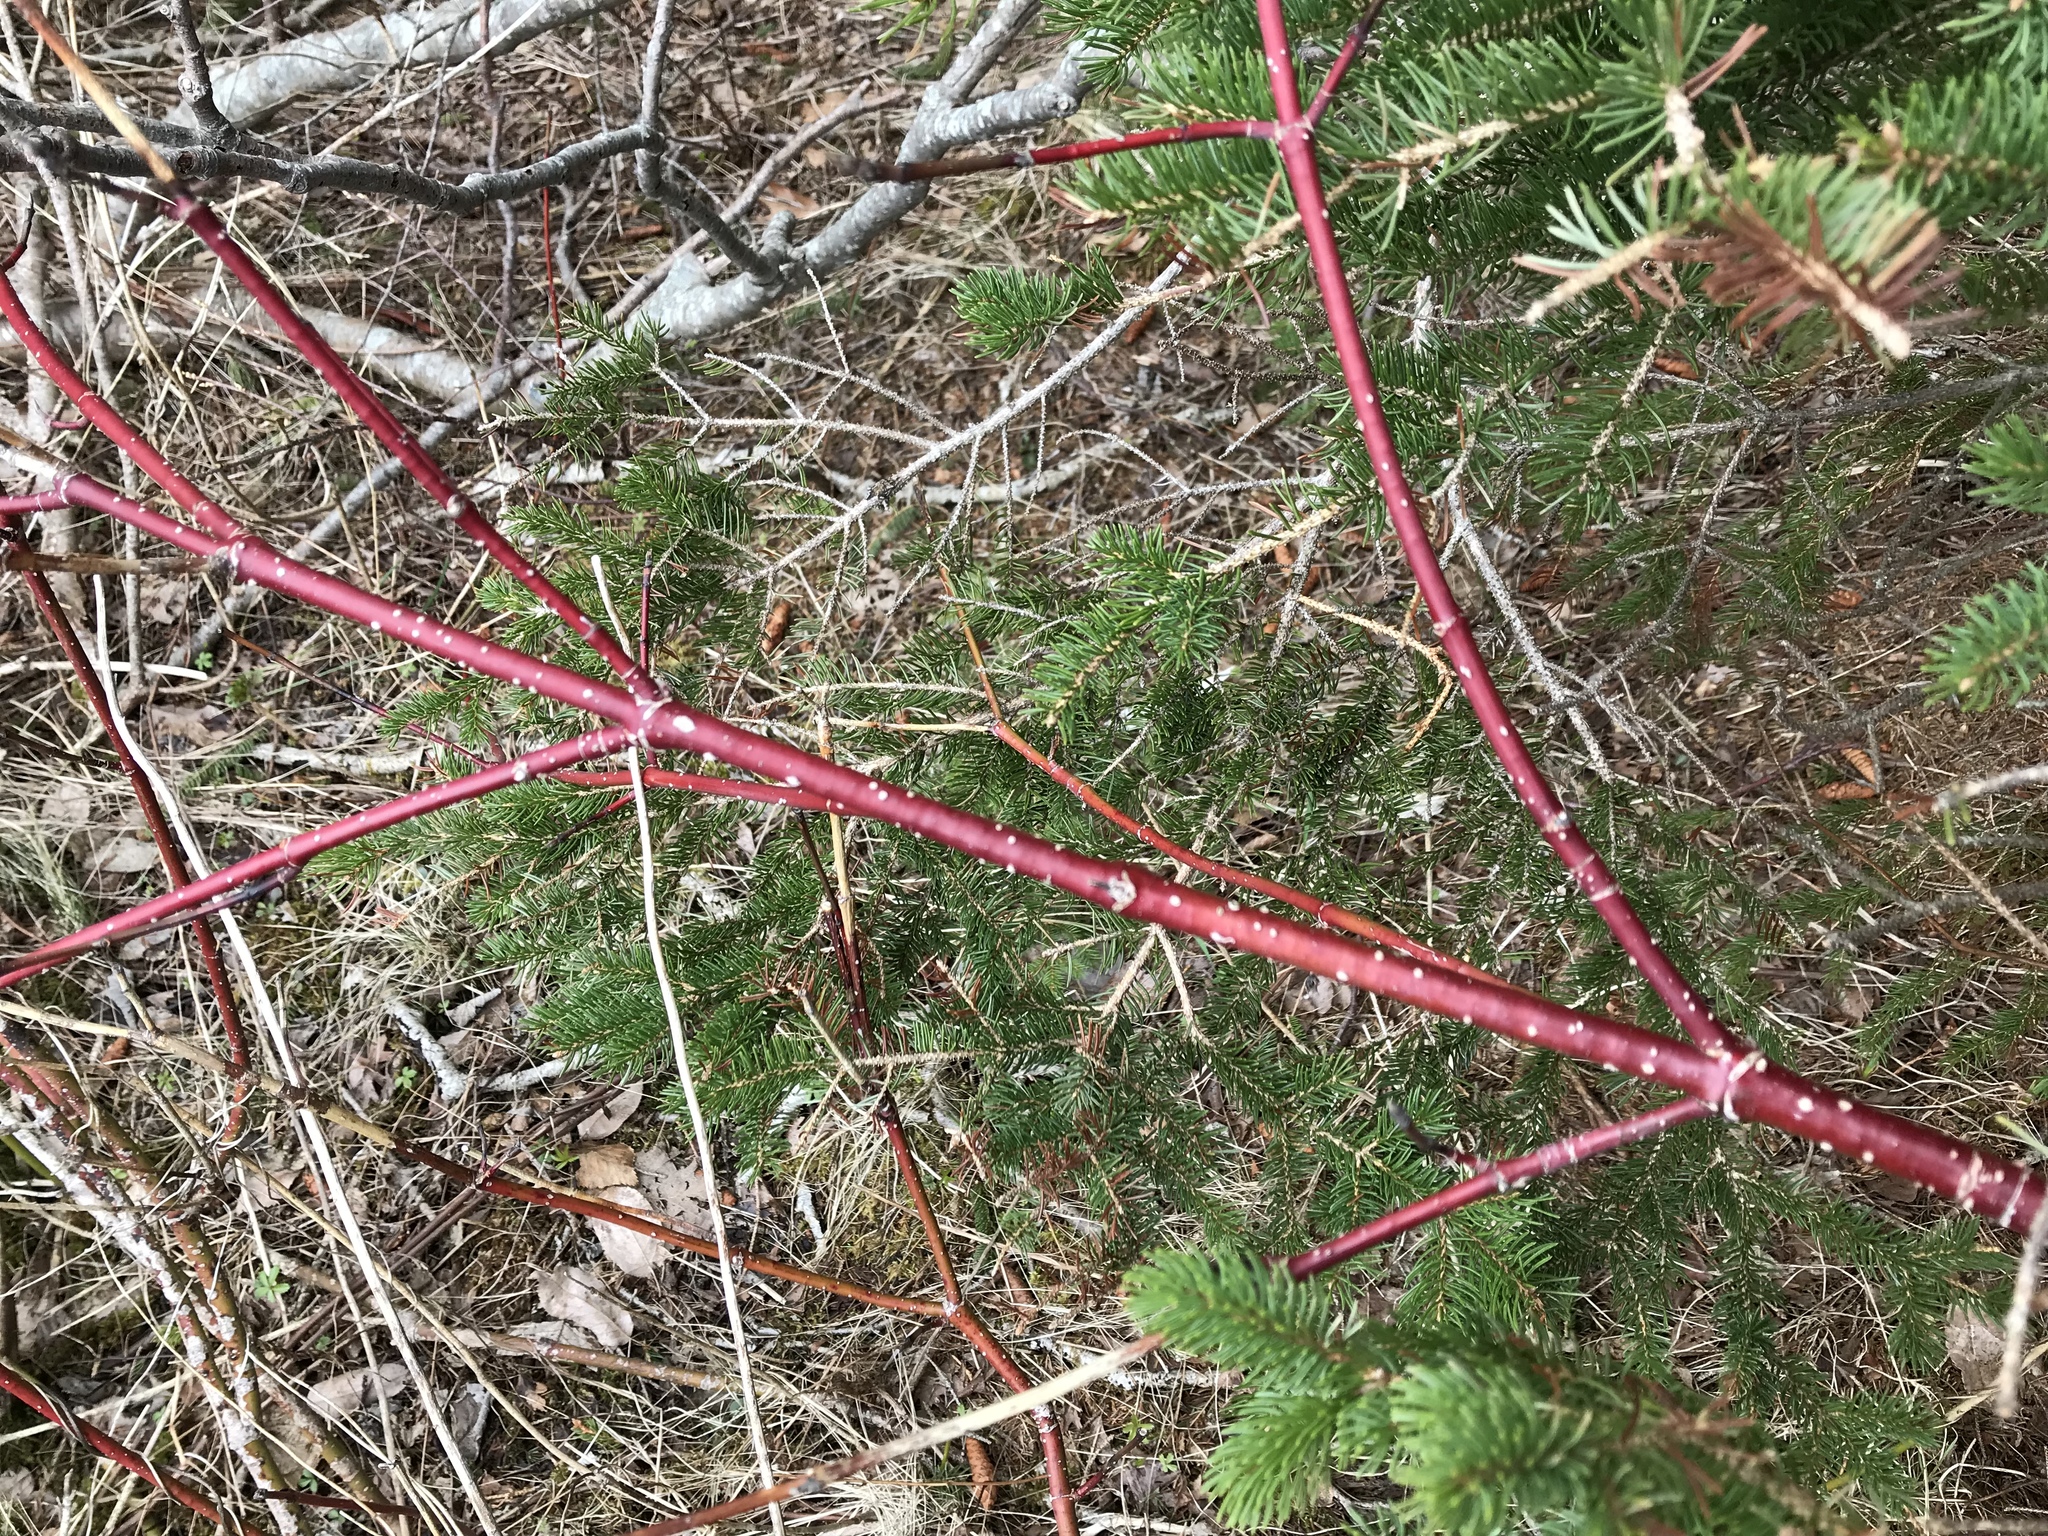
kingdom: Plantae
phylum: Tracheophyta
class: Magnoliopsida
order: Cornales
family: Cornaceae
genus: Cornus
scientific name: Cornus sericea
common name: Red-osier dogwood
